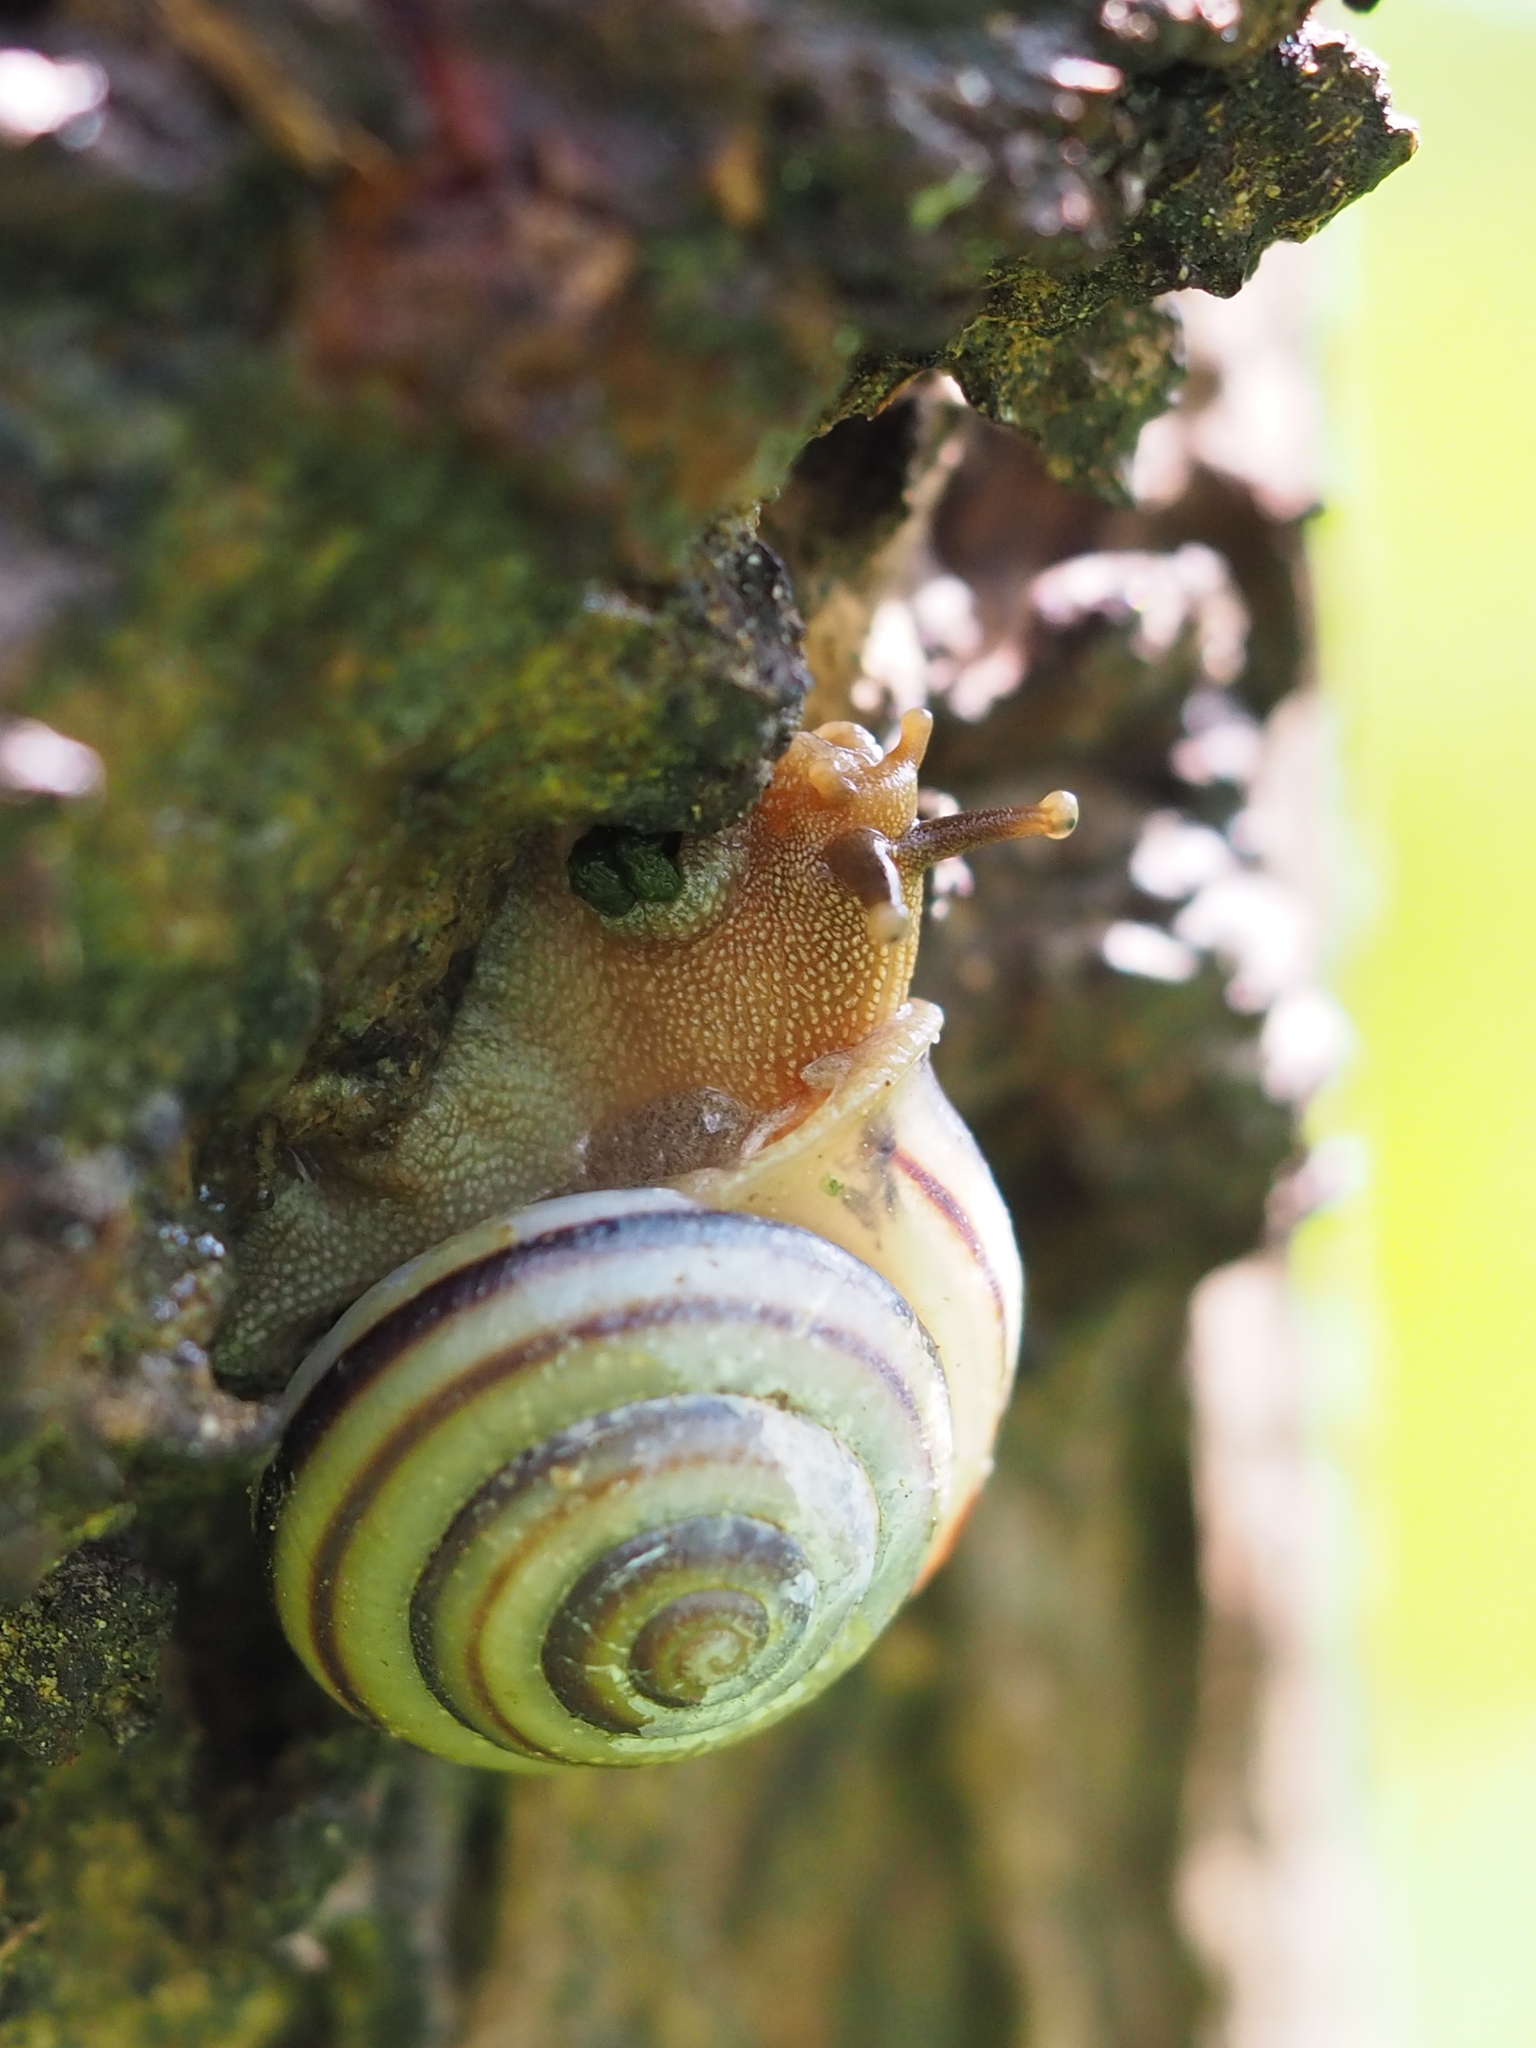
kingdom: Animalia
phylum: Mollusca
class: Gastropoda
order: Stylommatophora
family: Camaenidae
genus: Pancala
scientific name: Pancala batanica
